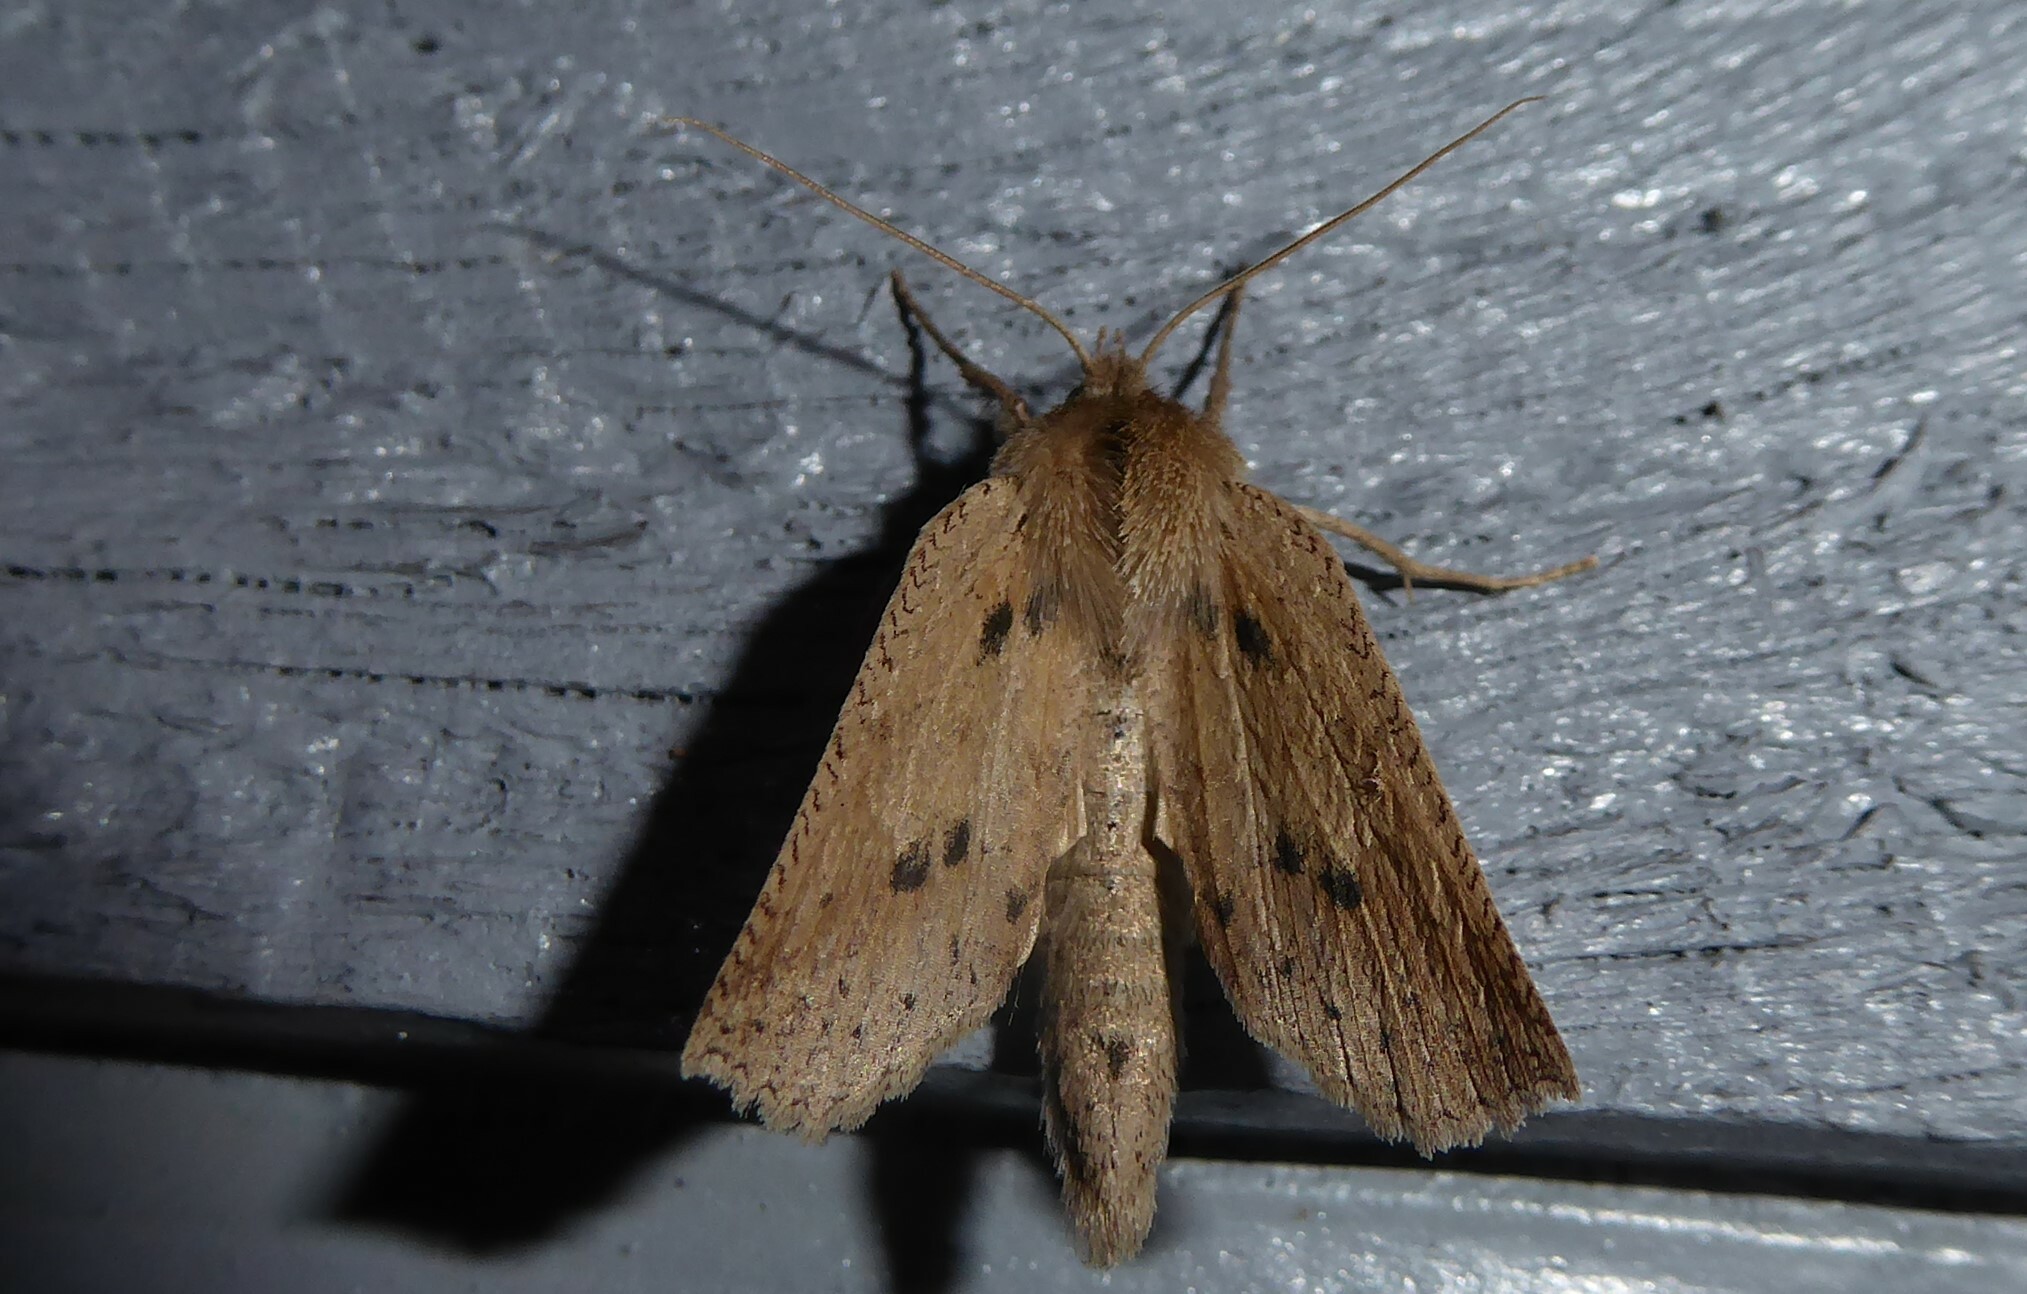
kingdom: Animalia
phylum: Arthropoda
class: Insecta
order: Lepidoptera
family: Geometridae
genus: Declana
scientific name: Declana leptomera
